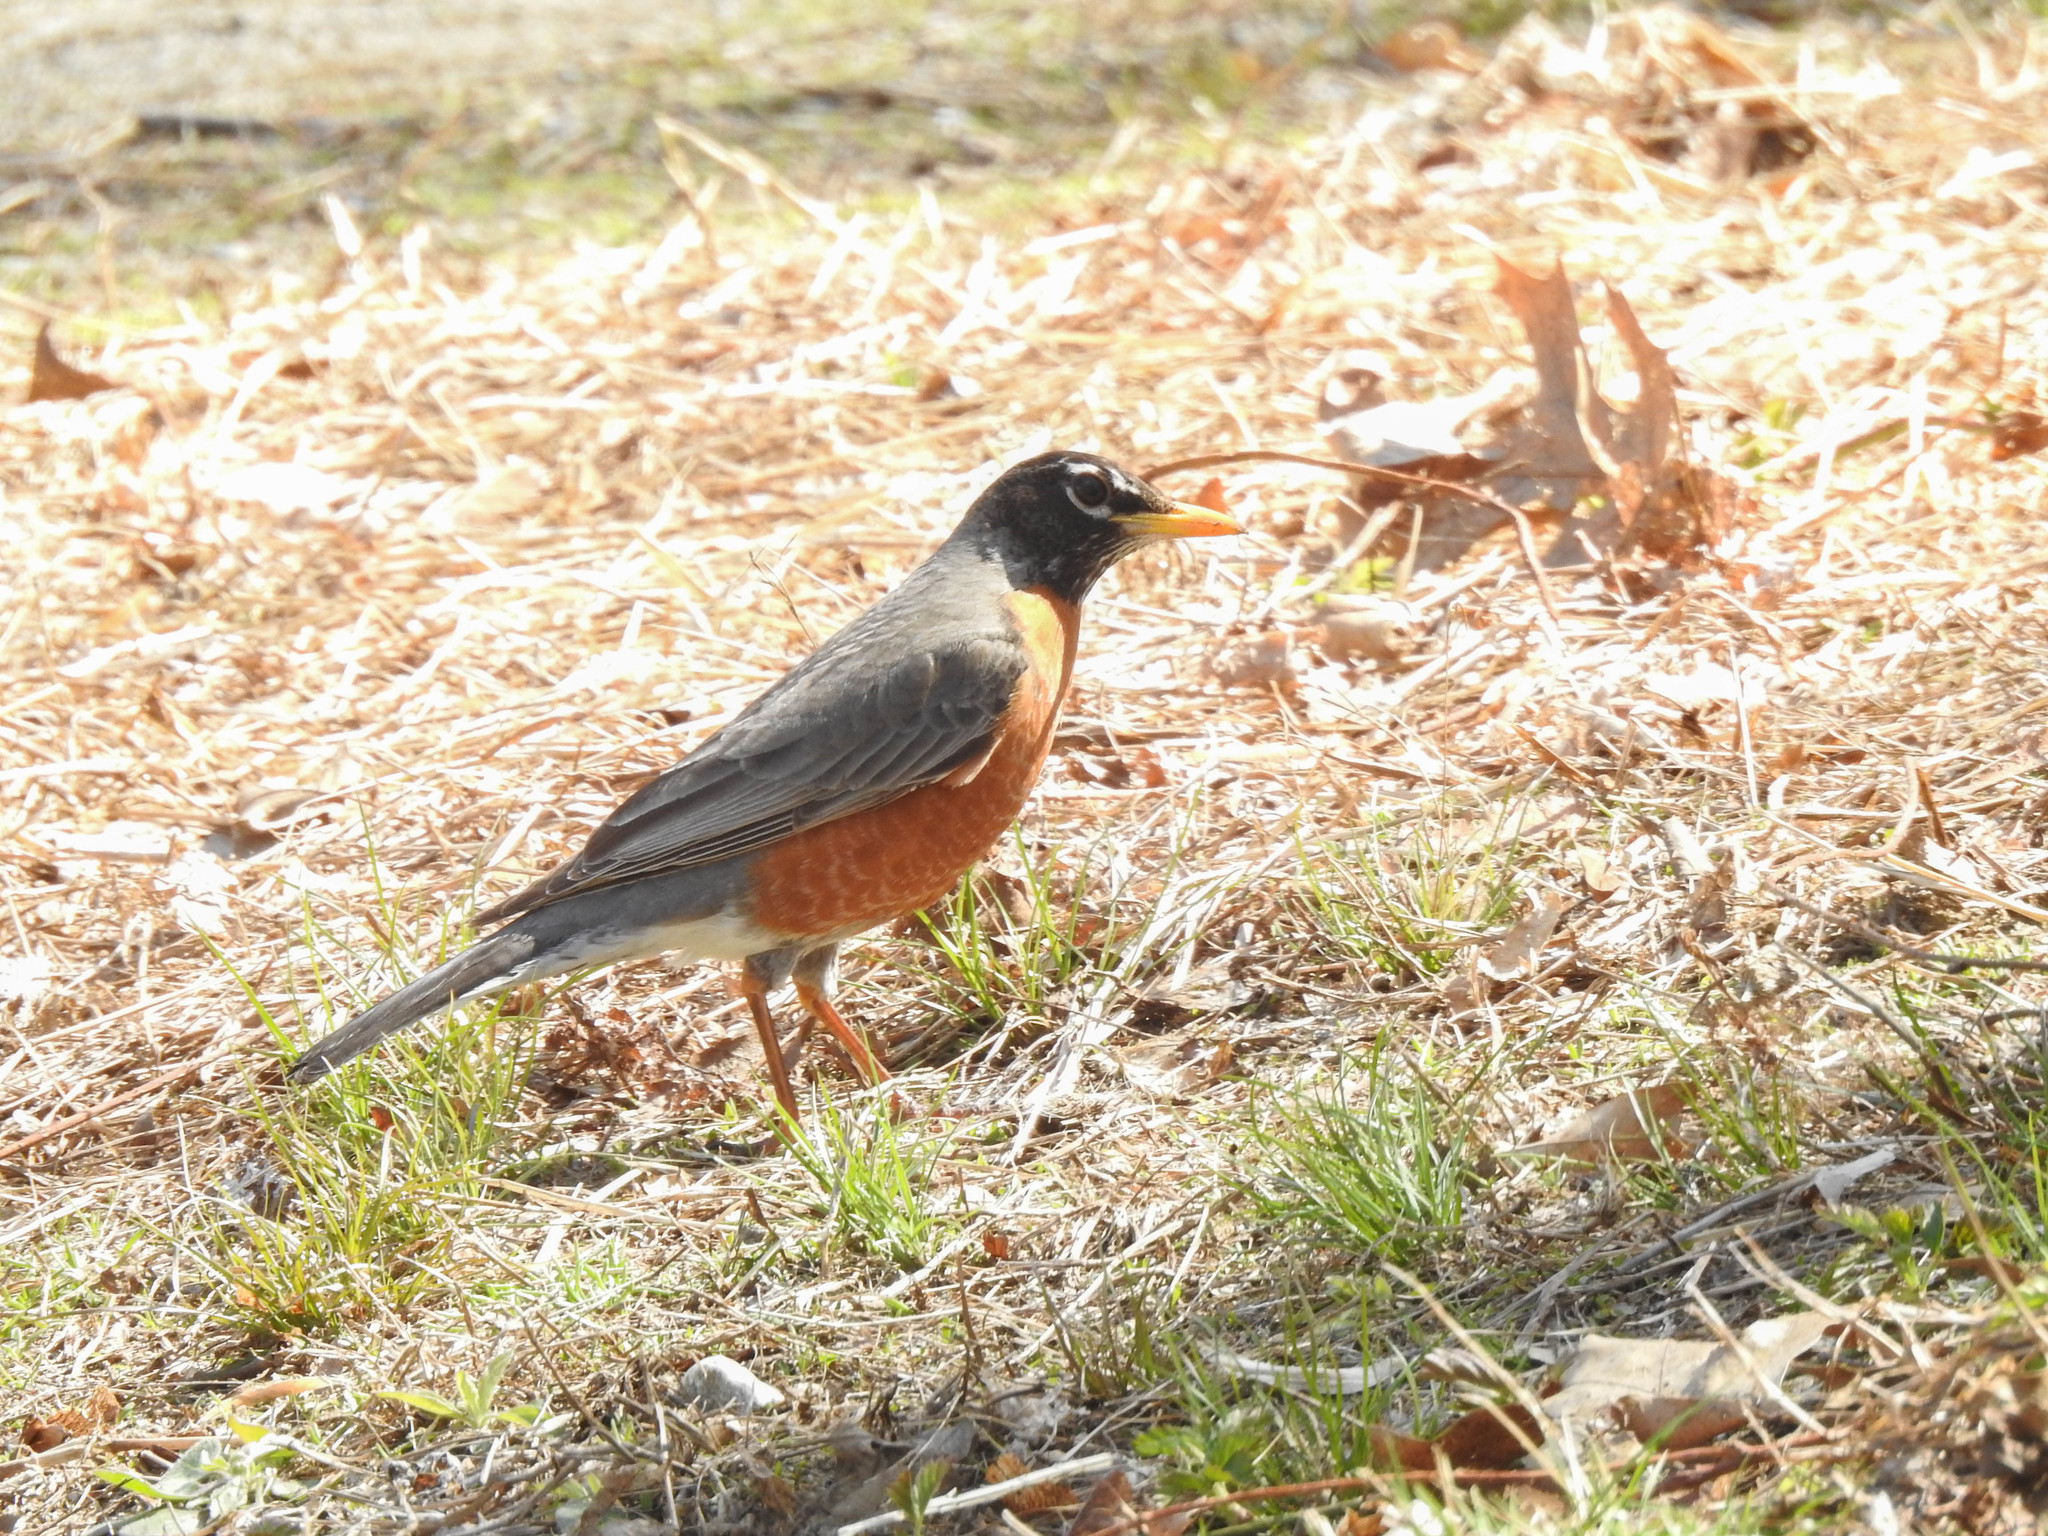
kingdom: Animalia
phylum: Chordata
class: Aves
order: Passeriformes
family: Turdidae
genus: Turdus
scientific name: Turdus migratorius
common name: American robin
